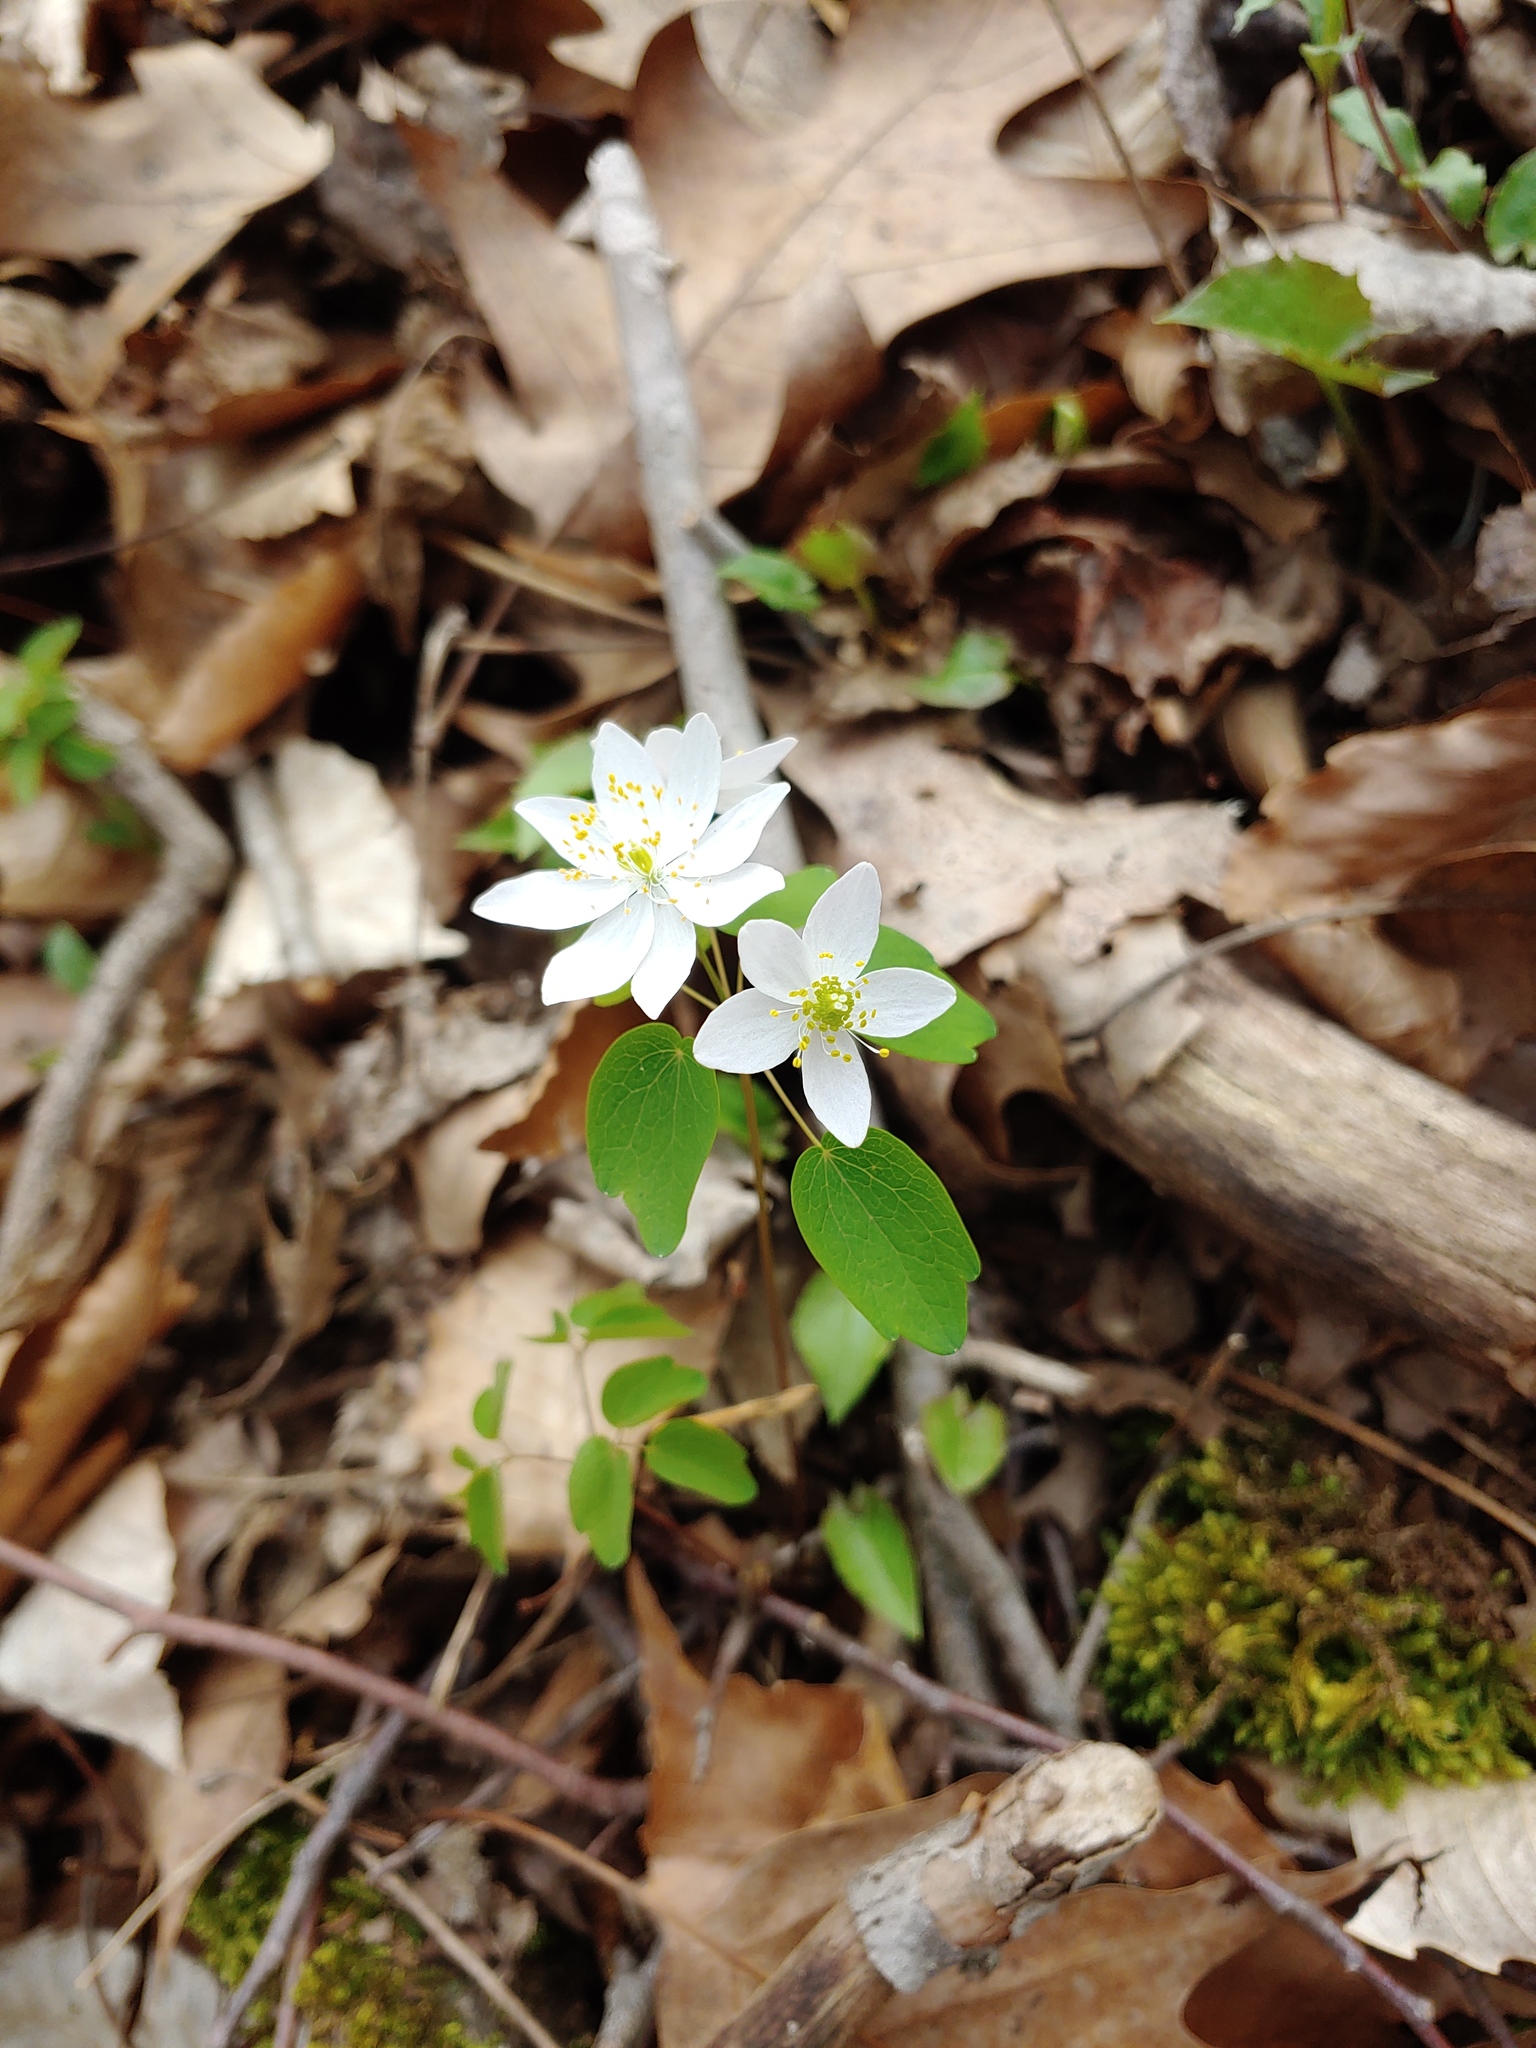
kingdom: Plantae
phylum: Tracheophyta
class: Magnoliopsida
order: Ranunculales
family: Ranunculaceae
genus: Thalictrum
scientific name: Thalictrum thalictroides
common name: Rue-anemone
